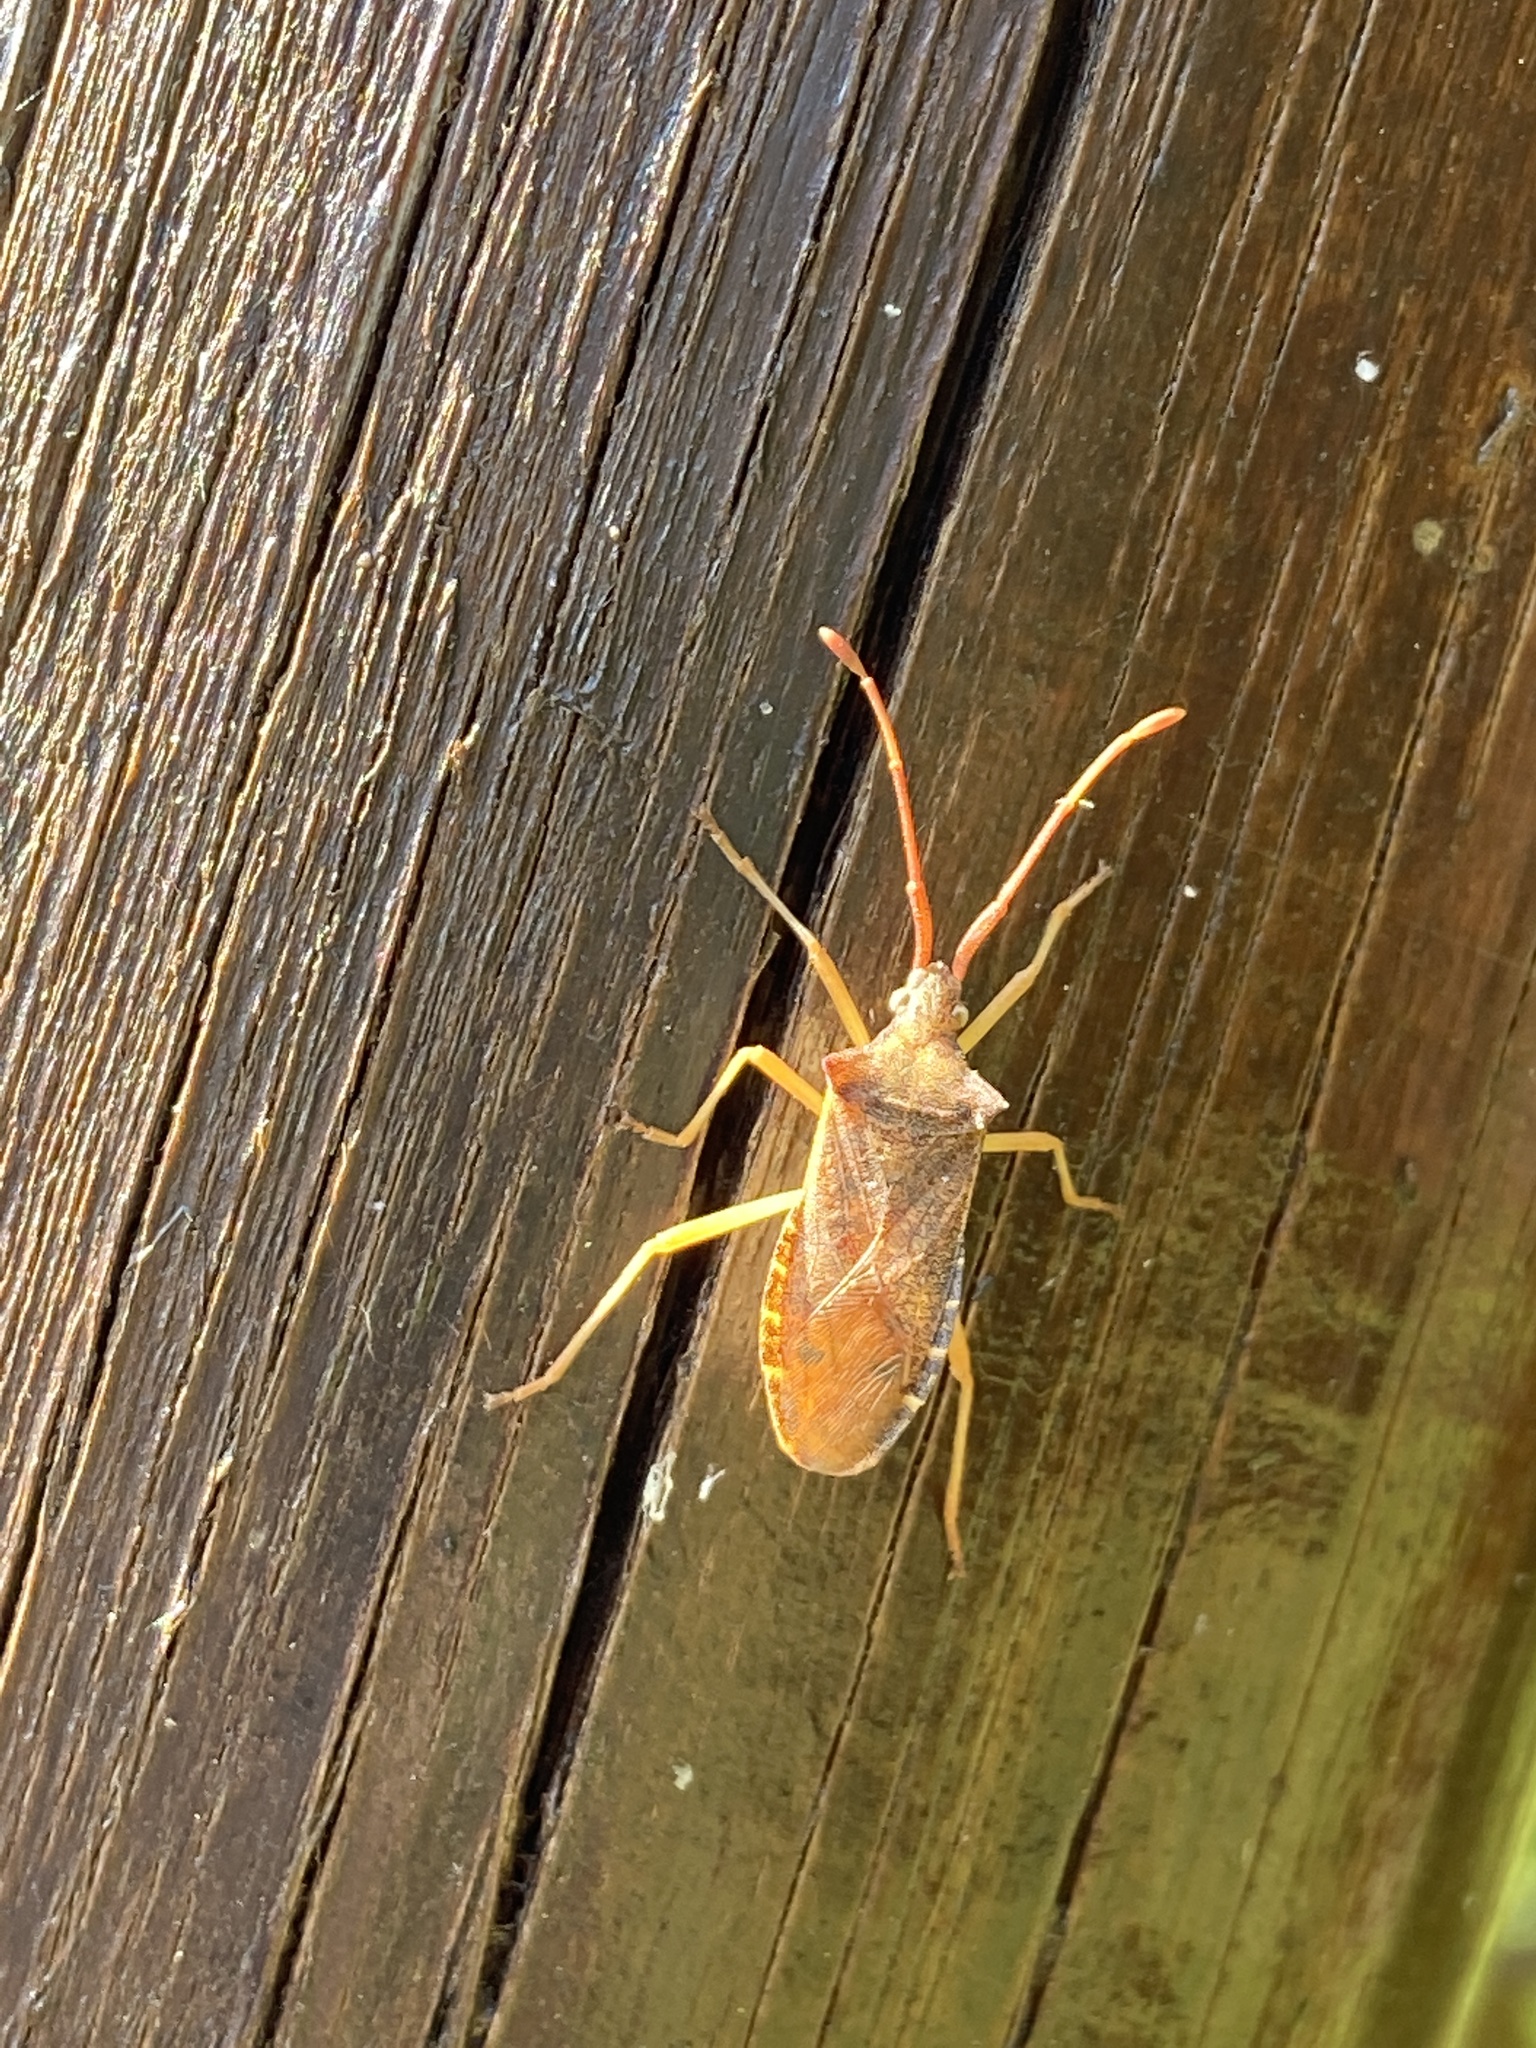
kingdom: Animalia
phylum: Arthropoda
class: Insecta
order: Hemiptera
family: Coreidae
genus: Gonocerus
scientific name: Gonocerus acuteangulatus
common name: Box bug
